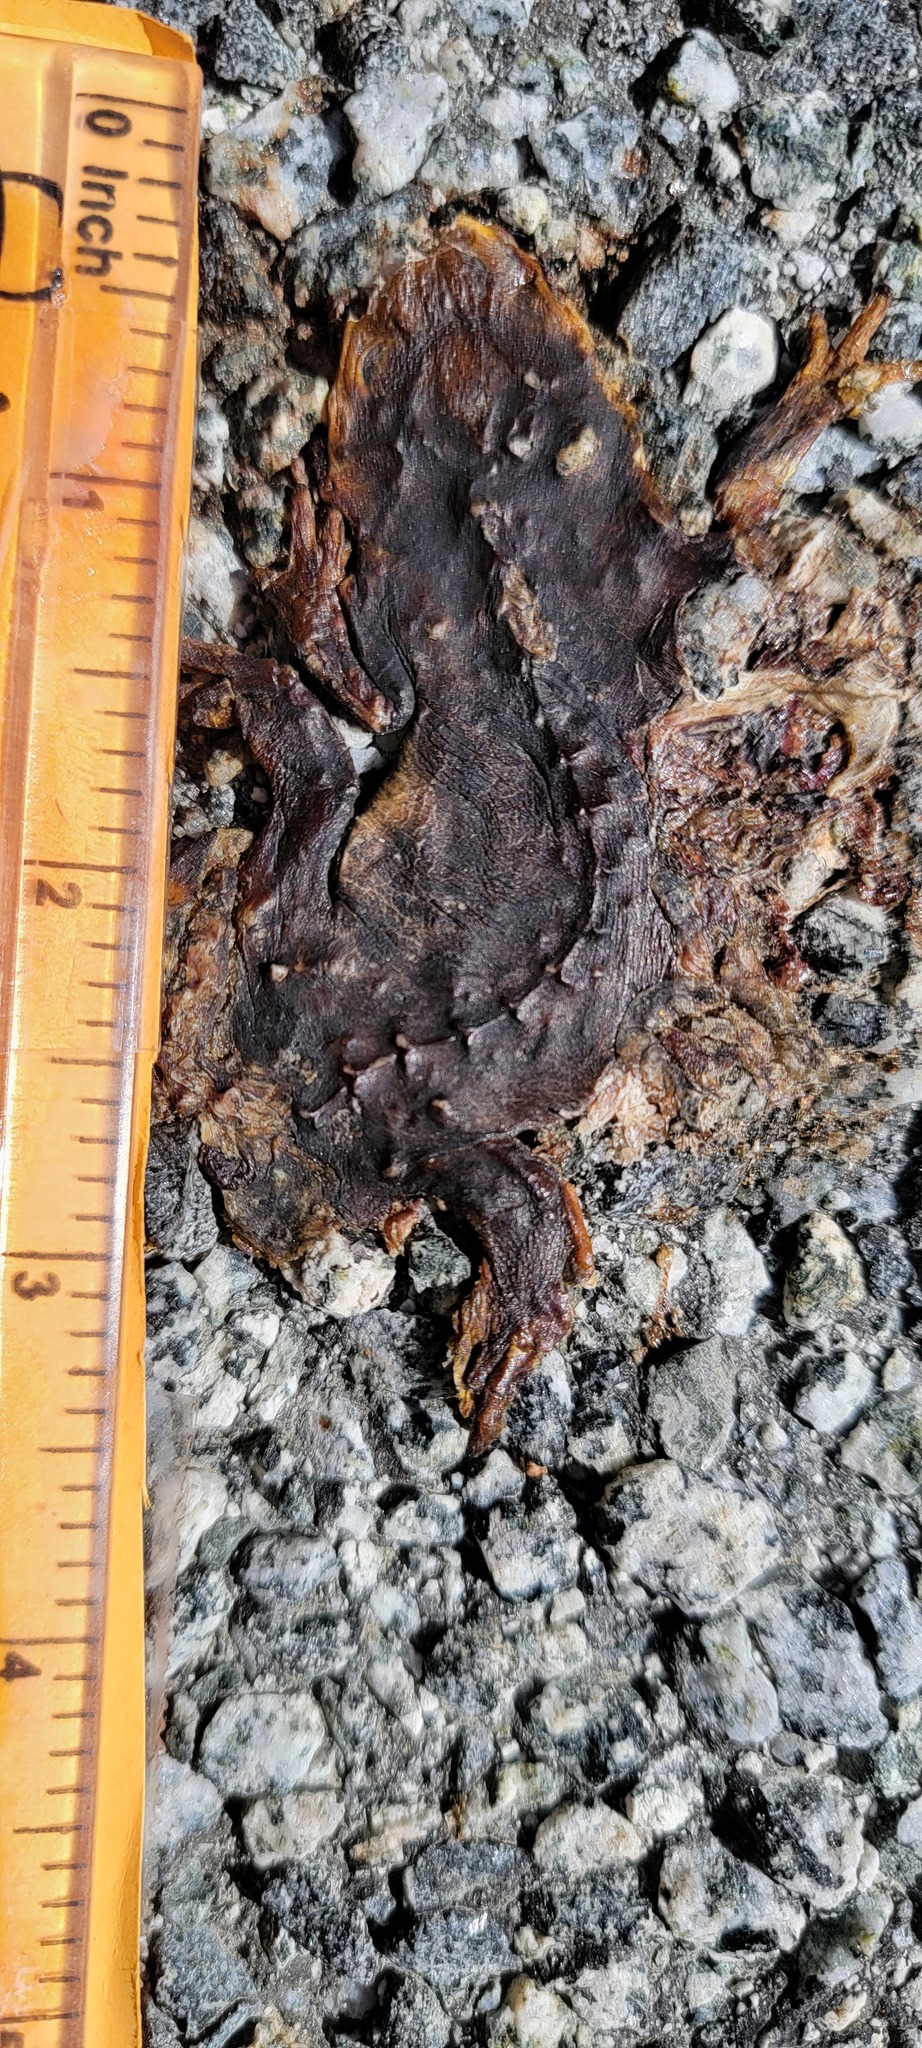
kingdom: Animalia
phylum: Chordata
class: Amphibia
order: Caudata
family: Salamandridae
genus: Taricha
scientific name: Taricha
